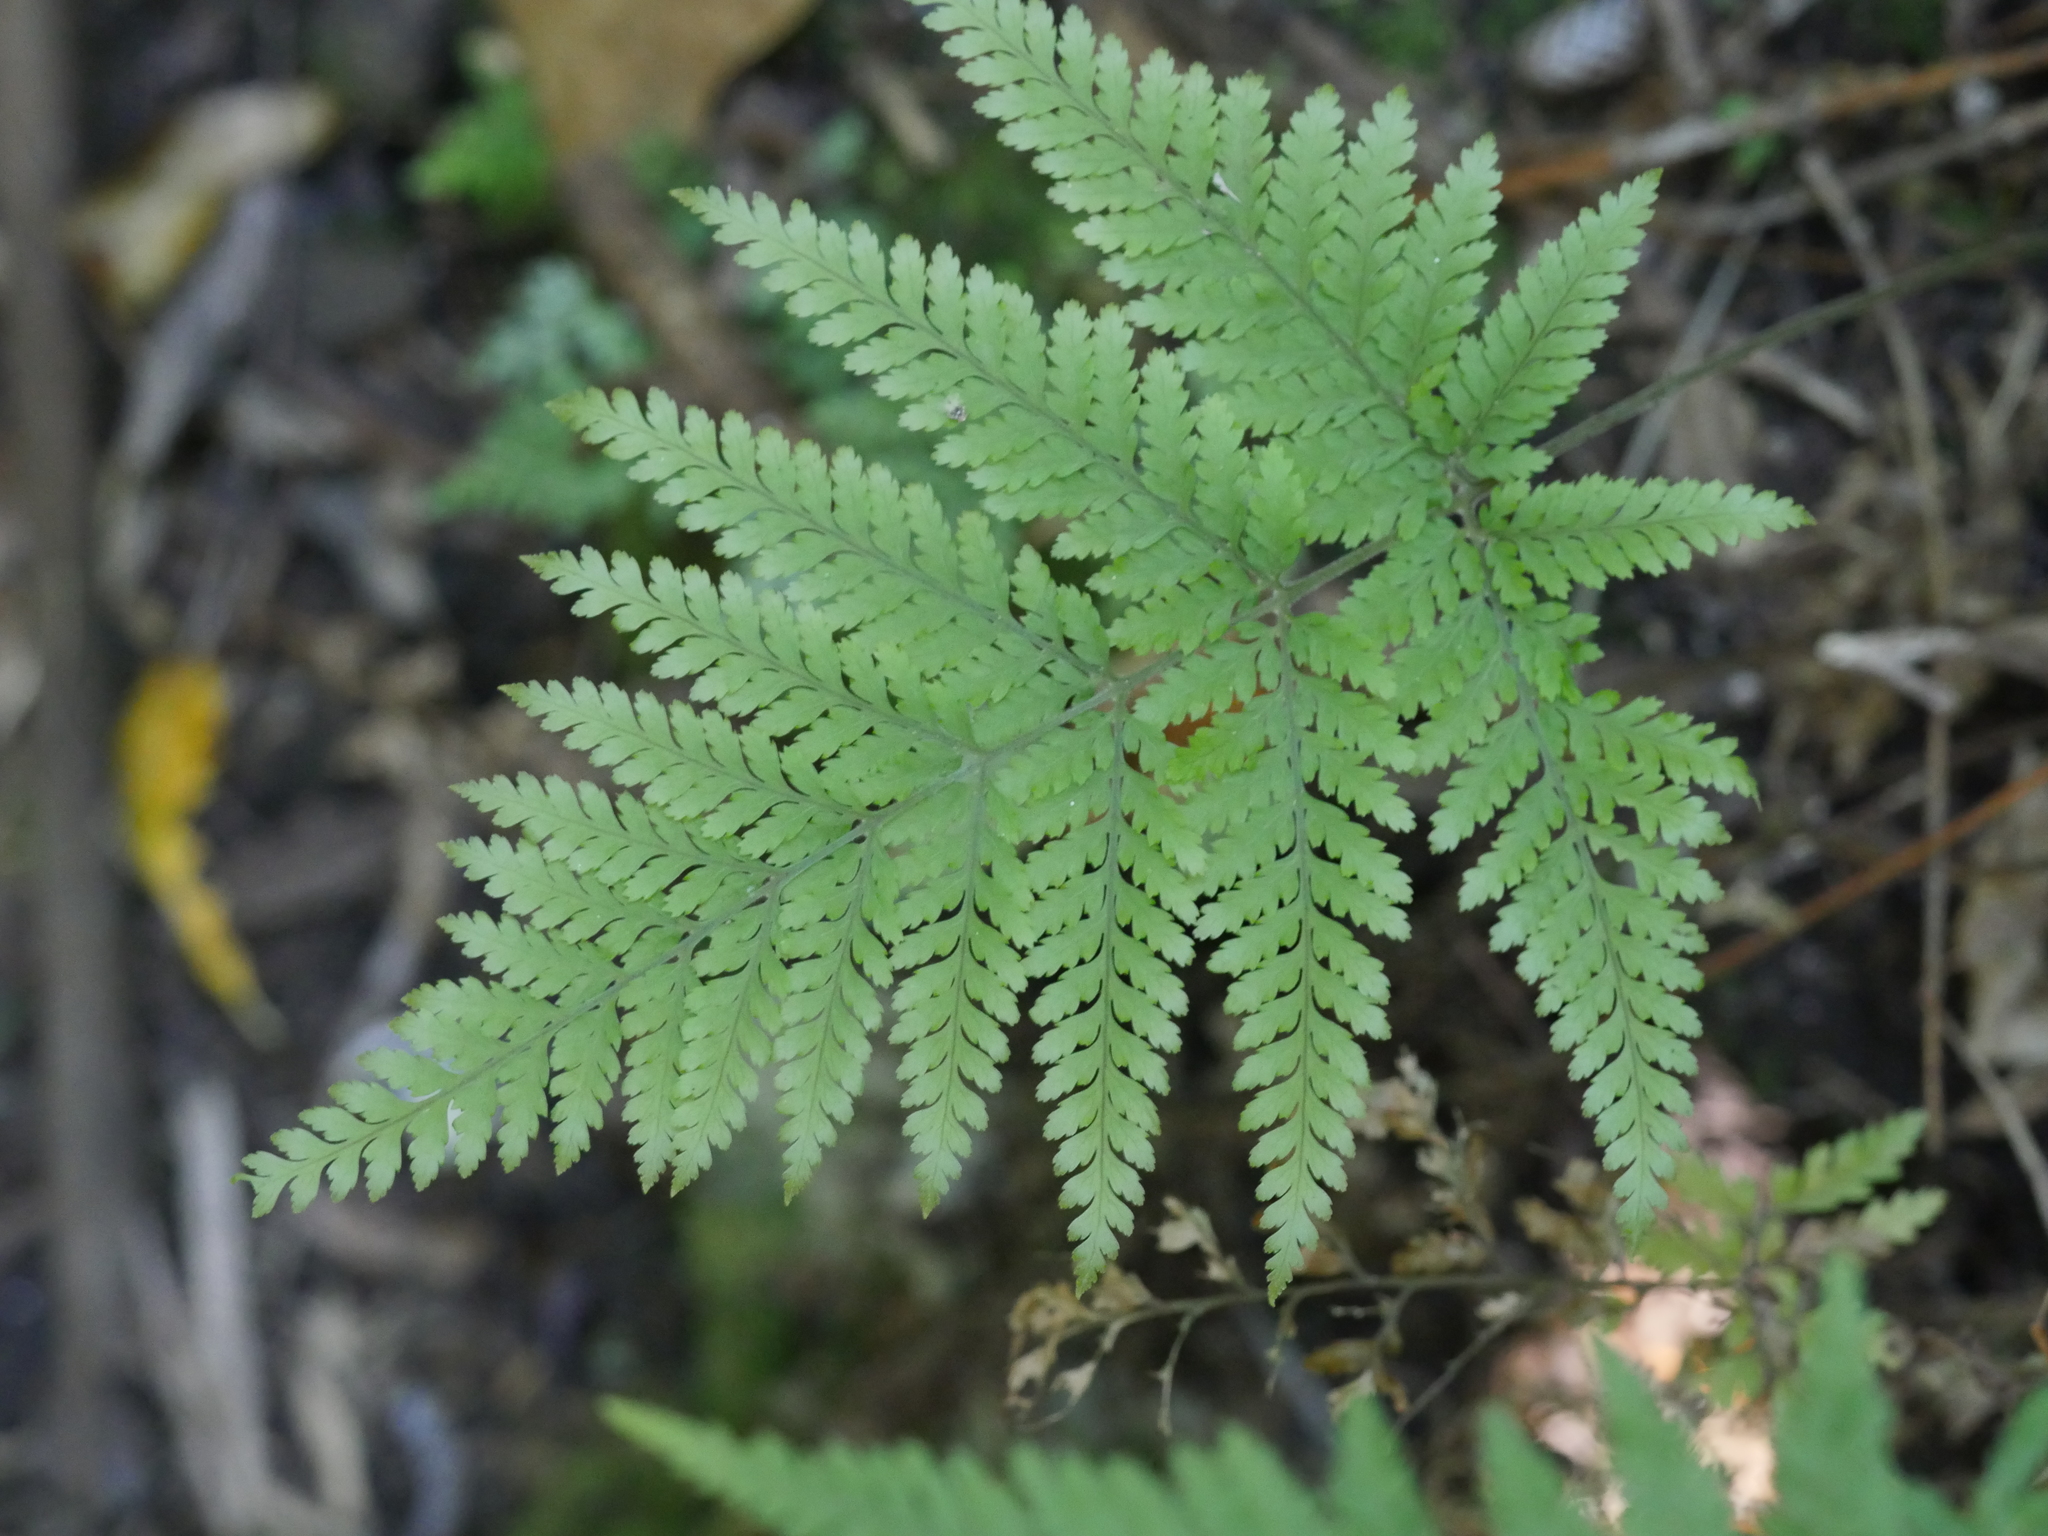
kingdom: Plantae
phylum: Tracheophyta
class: Polypodiopsida
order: Polypodiales
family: Dryopteridaceae
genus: Parapolystichum
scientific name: Parapolystichum microsorum
